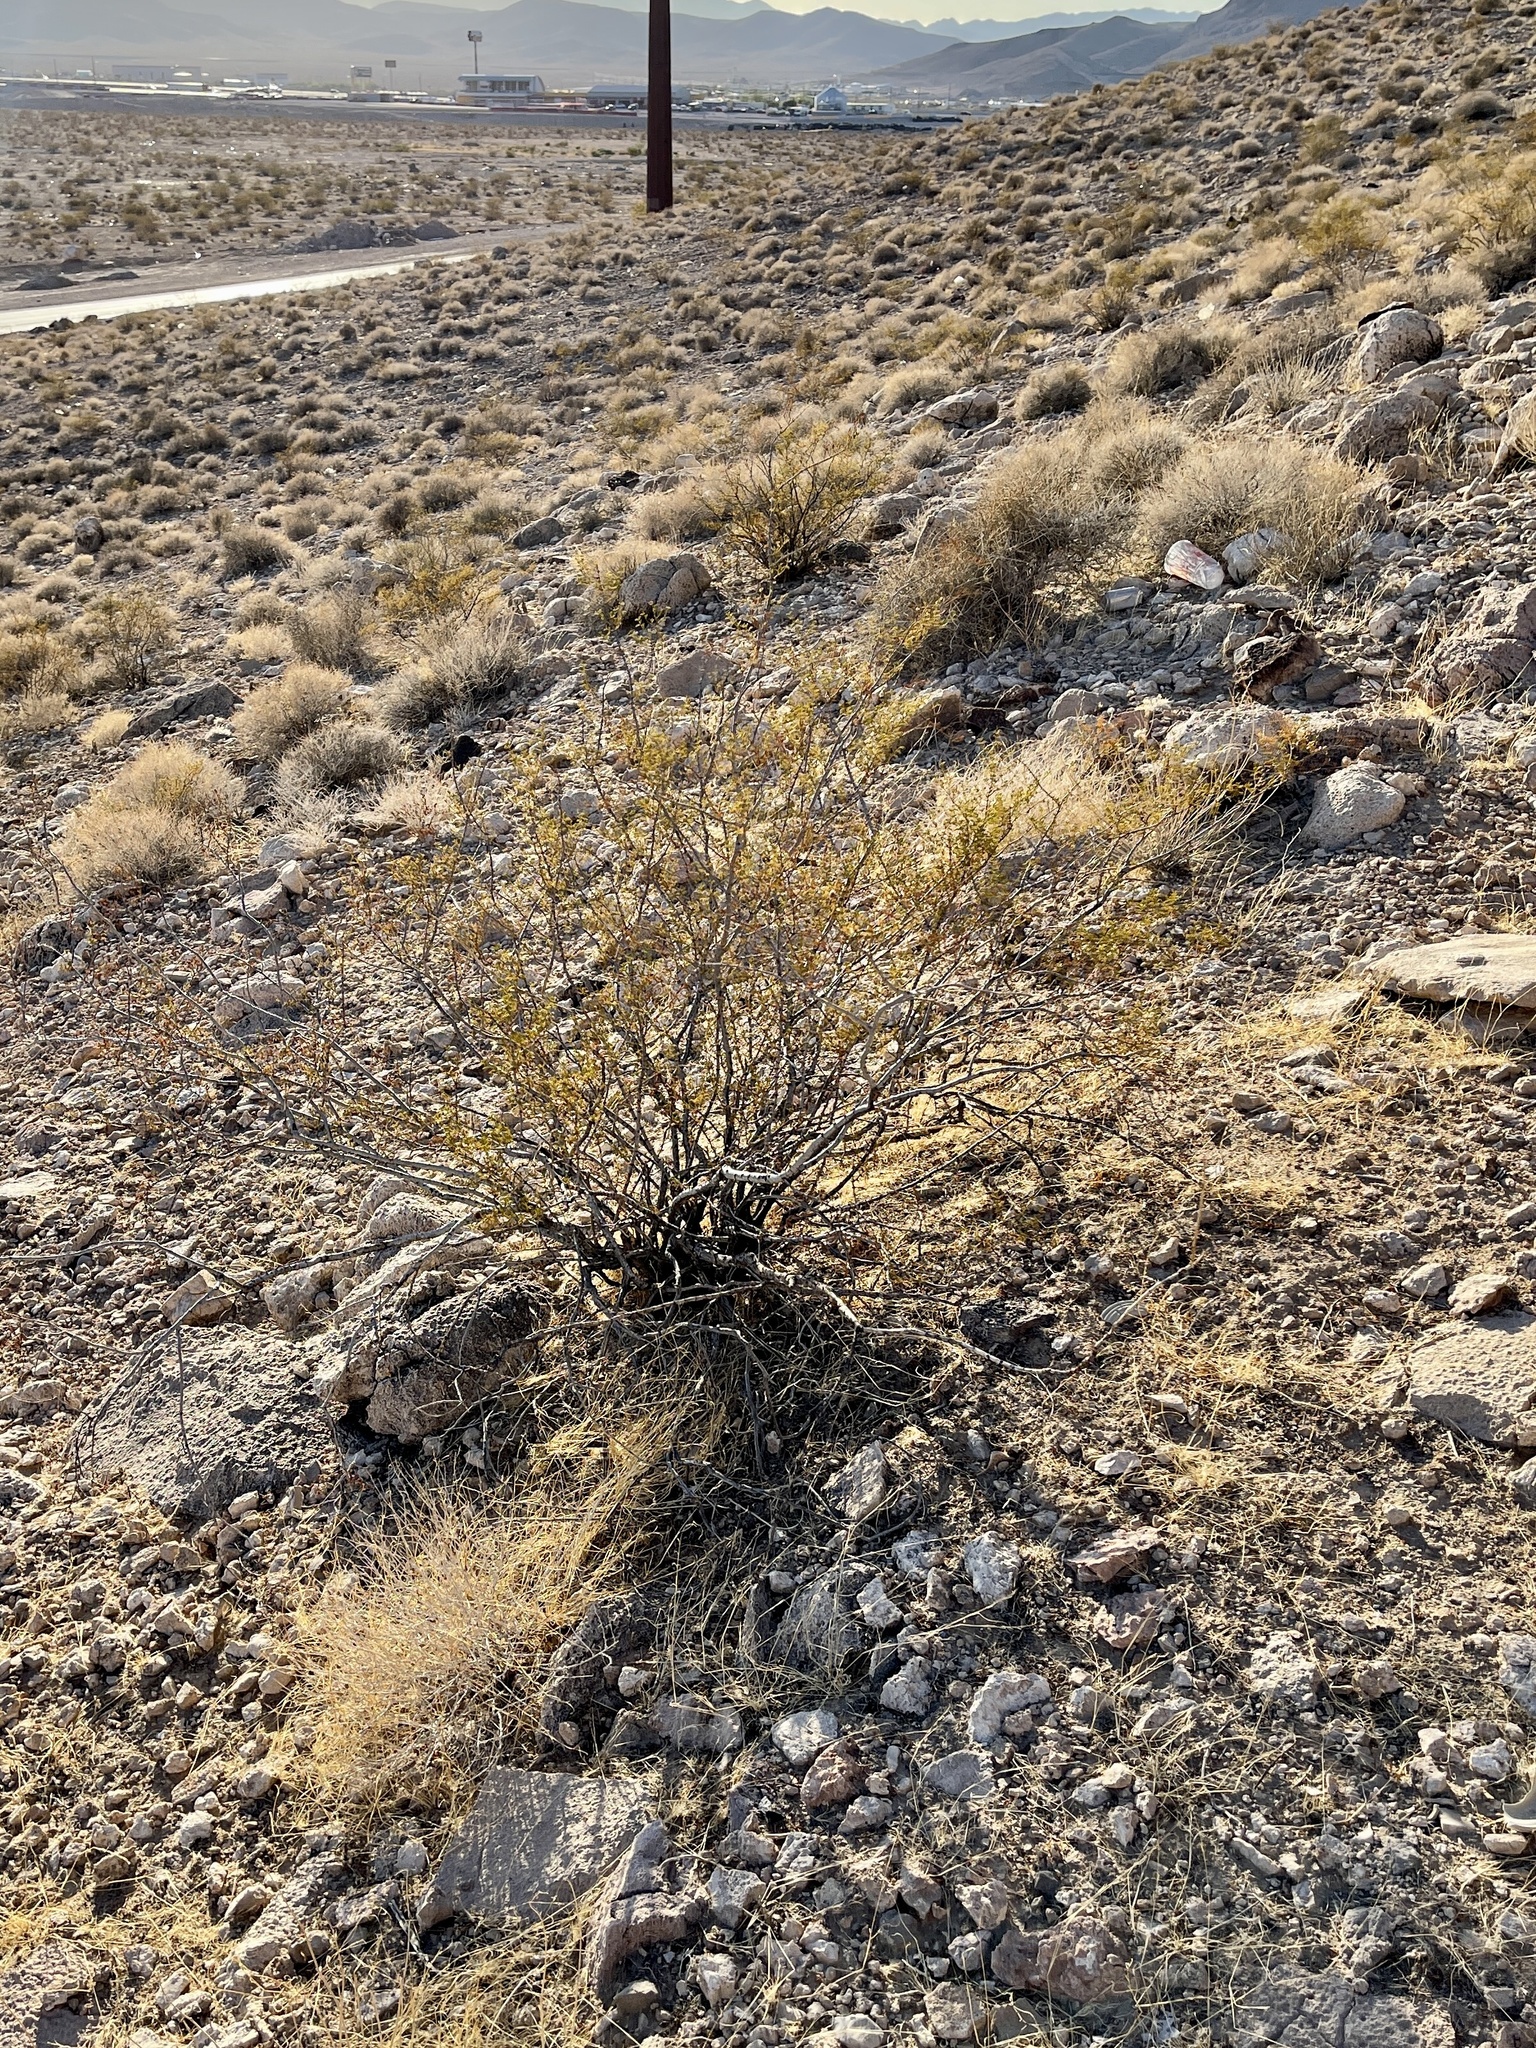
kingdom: Plantae
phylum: Tracheophyta
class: Magnoliopsida
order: Zygophyllales
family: Zygophyllaceae
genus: Larrea
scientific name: Larrea tridentata
